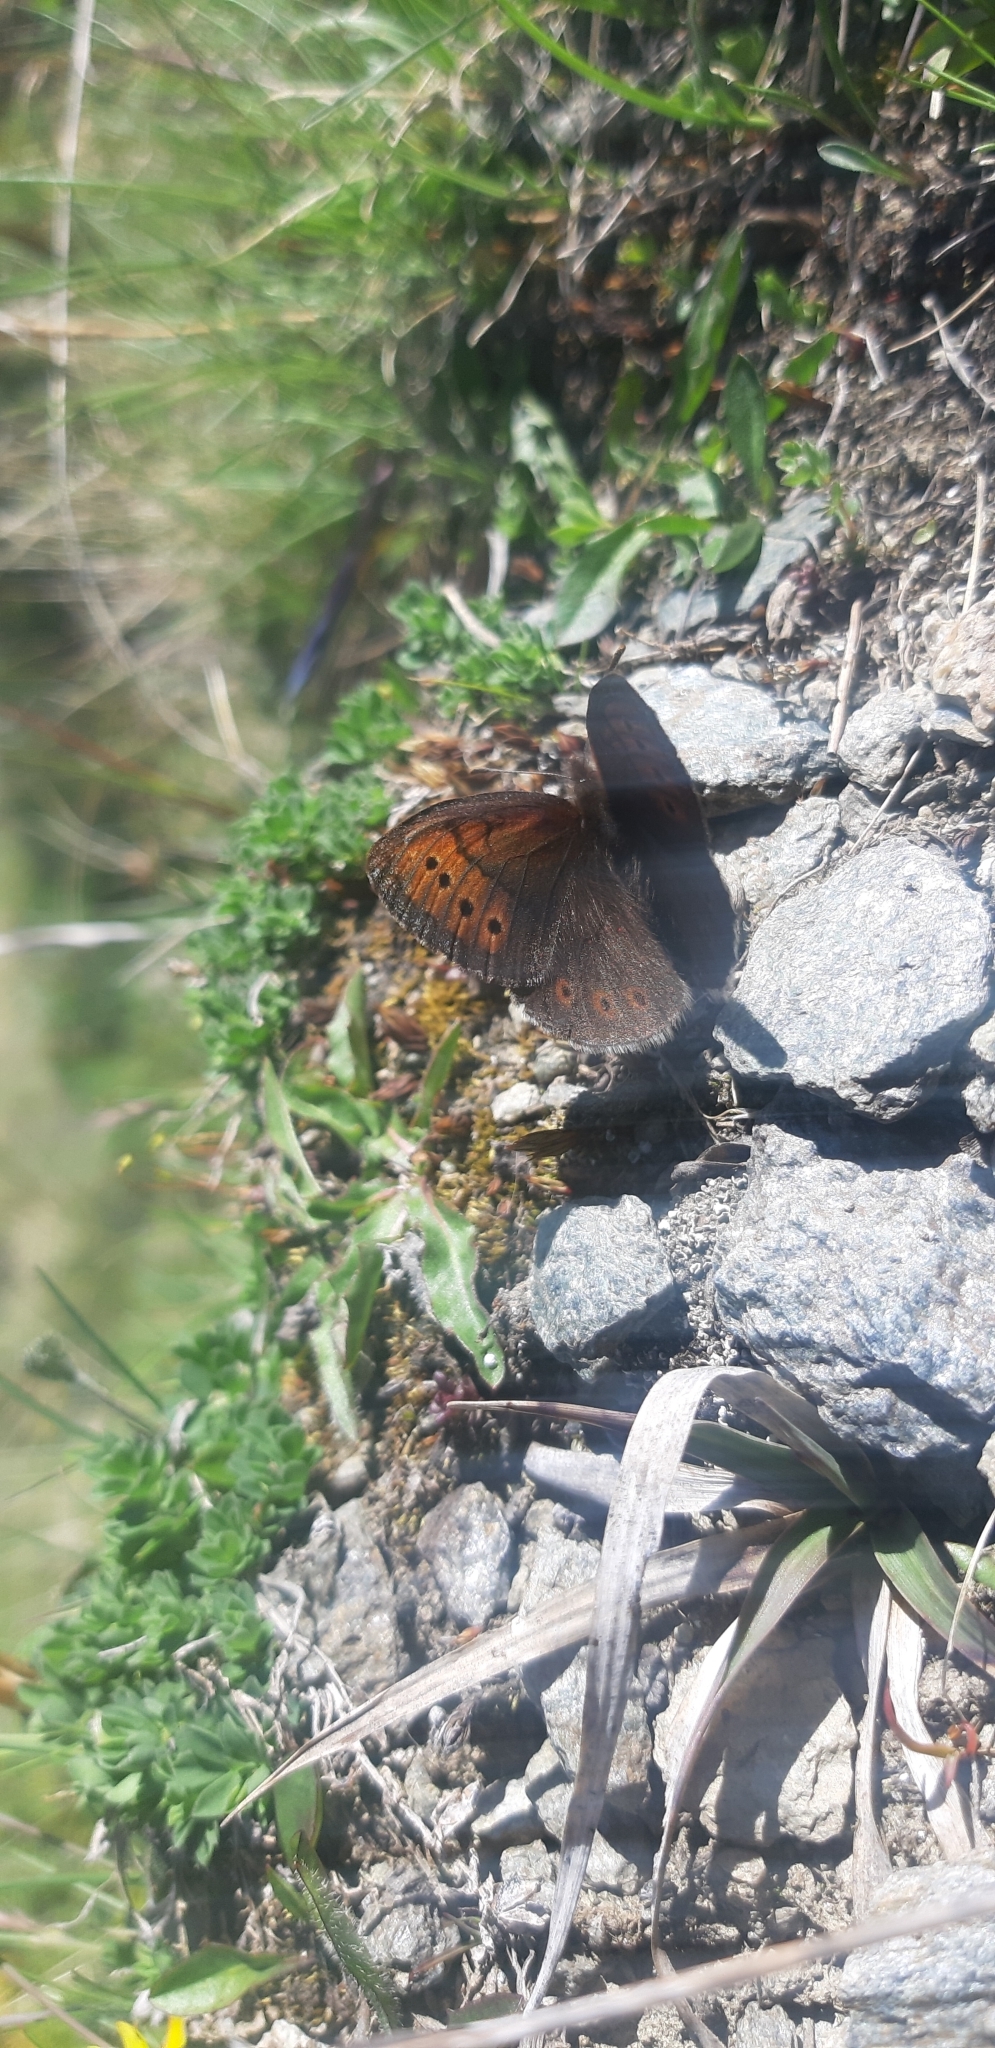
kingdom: Animalia
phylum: Arthropoda
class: Insecta
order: Lepidoptera
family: Nymphalidae
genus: Erebia
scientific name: Erebia pandrose
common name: Dewy ringlet
